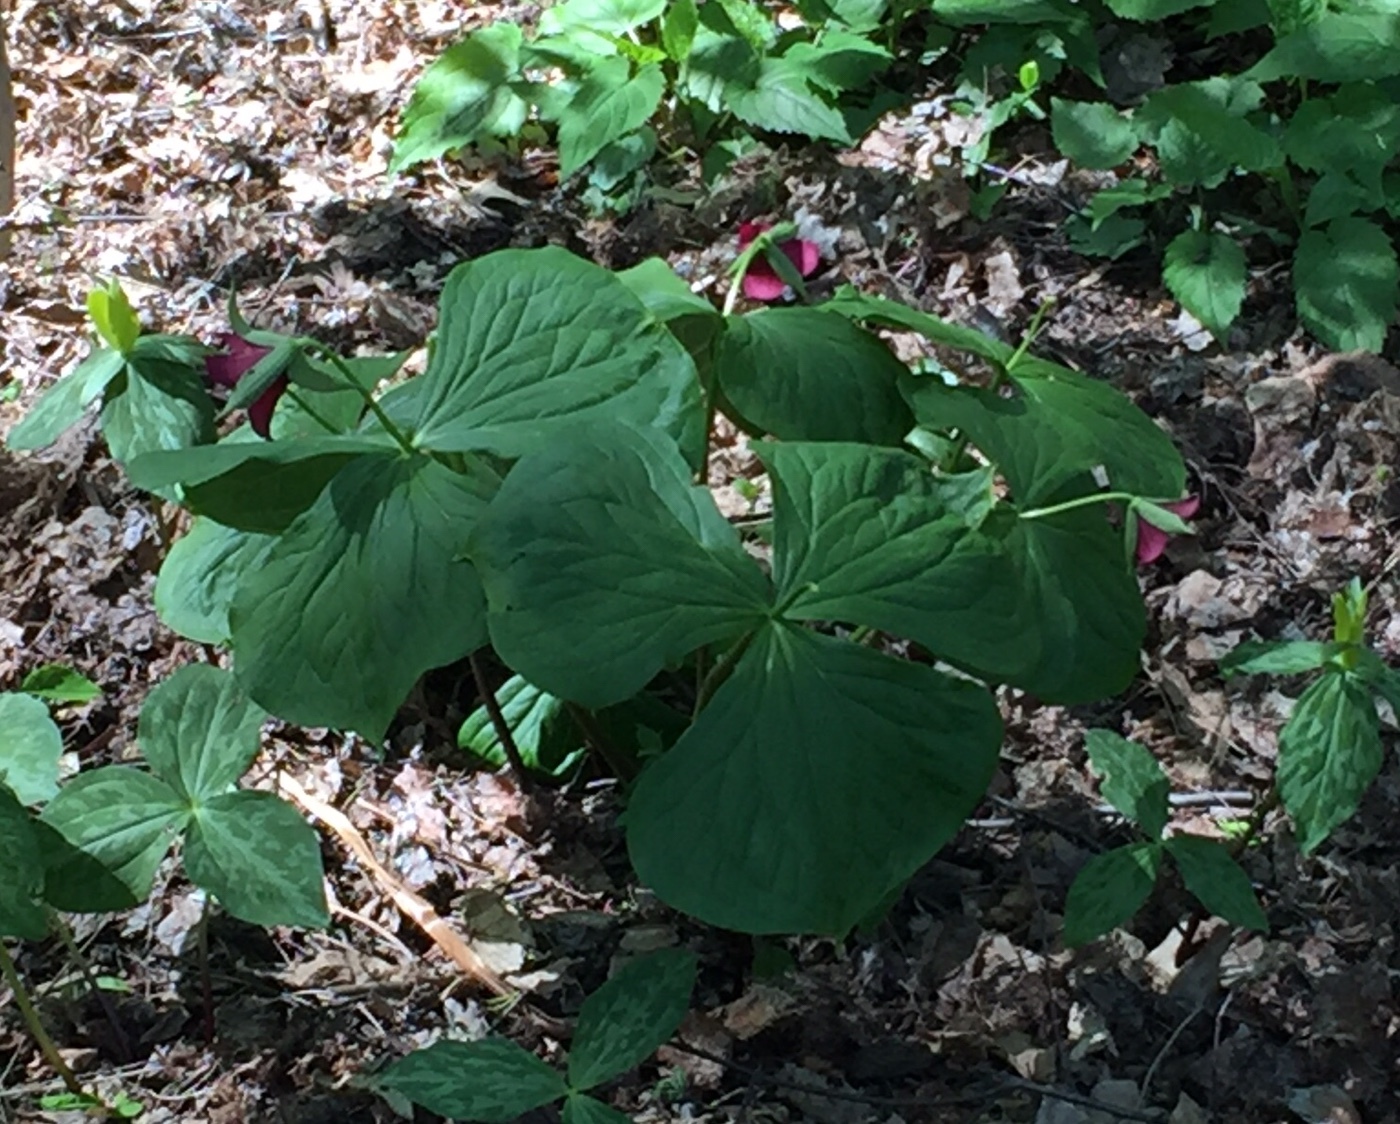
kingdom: Plantae
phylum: Tracheophyta
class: Liliopsida
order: Liliales
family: Melanthiaceae
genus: Trillium
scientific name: Trillium erectum
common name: Purple trillium
